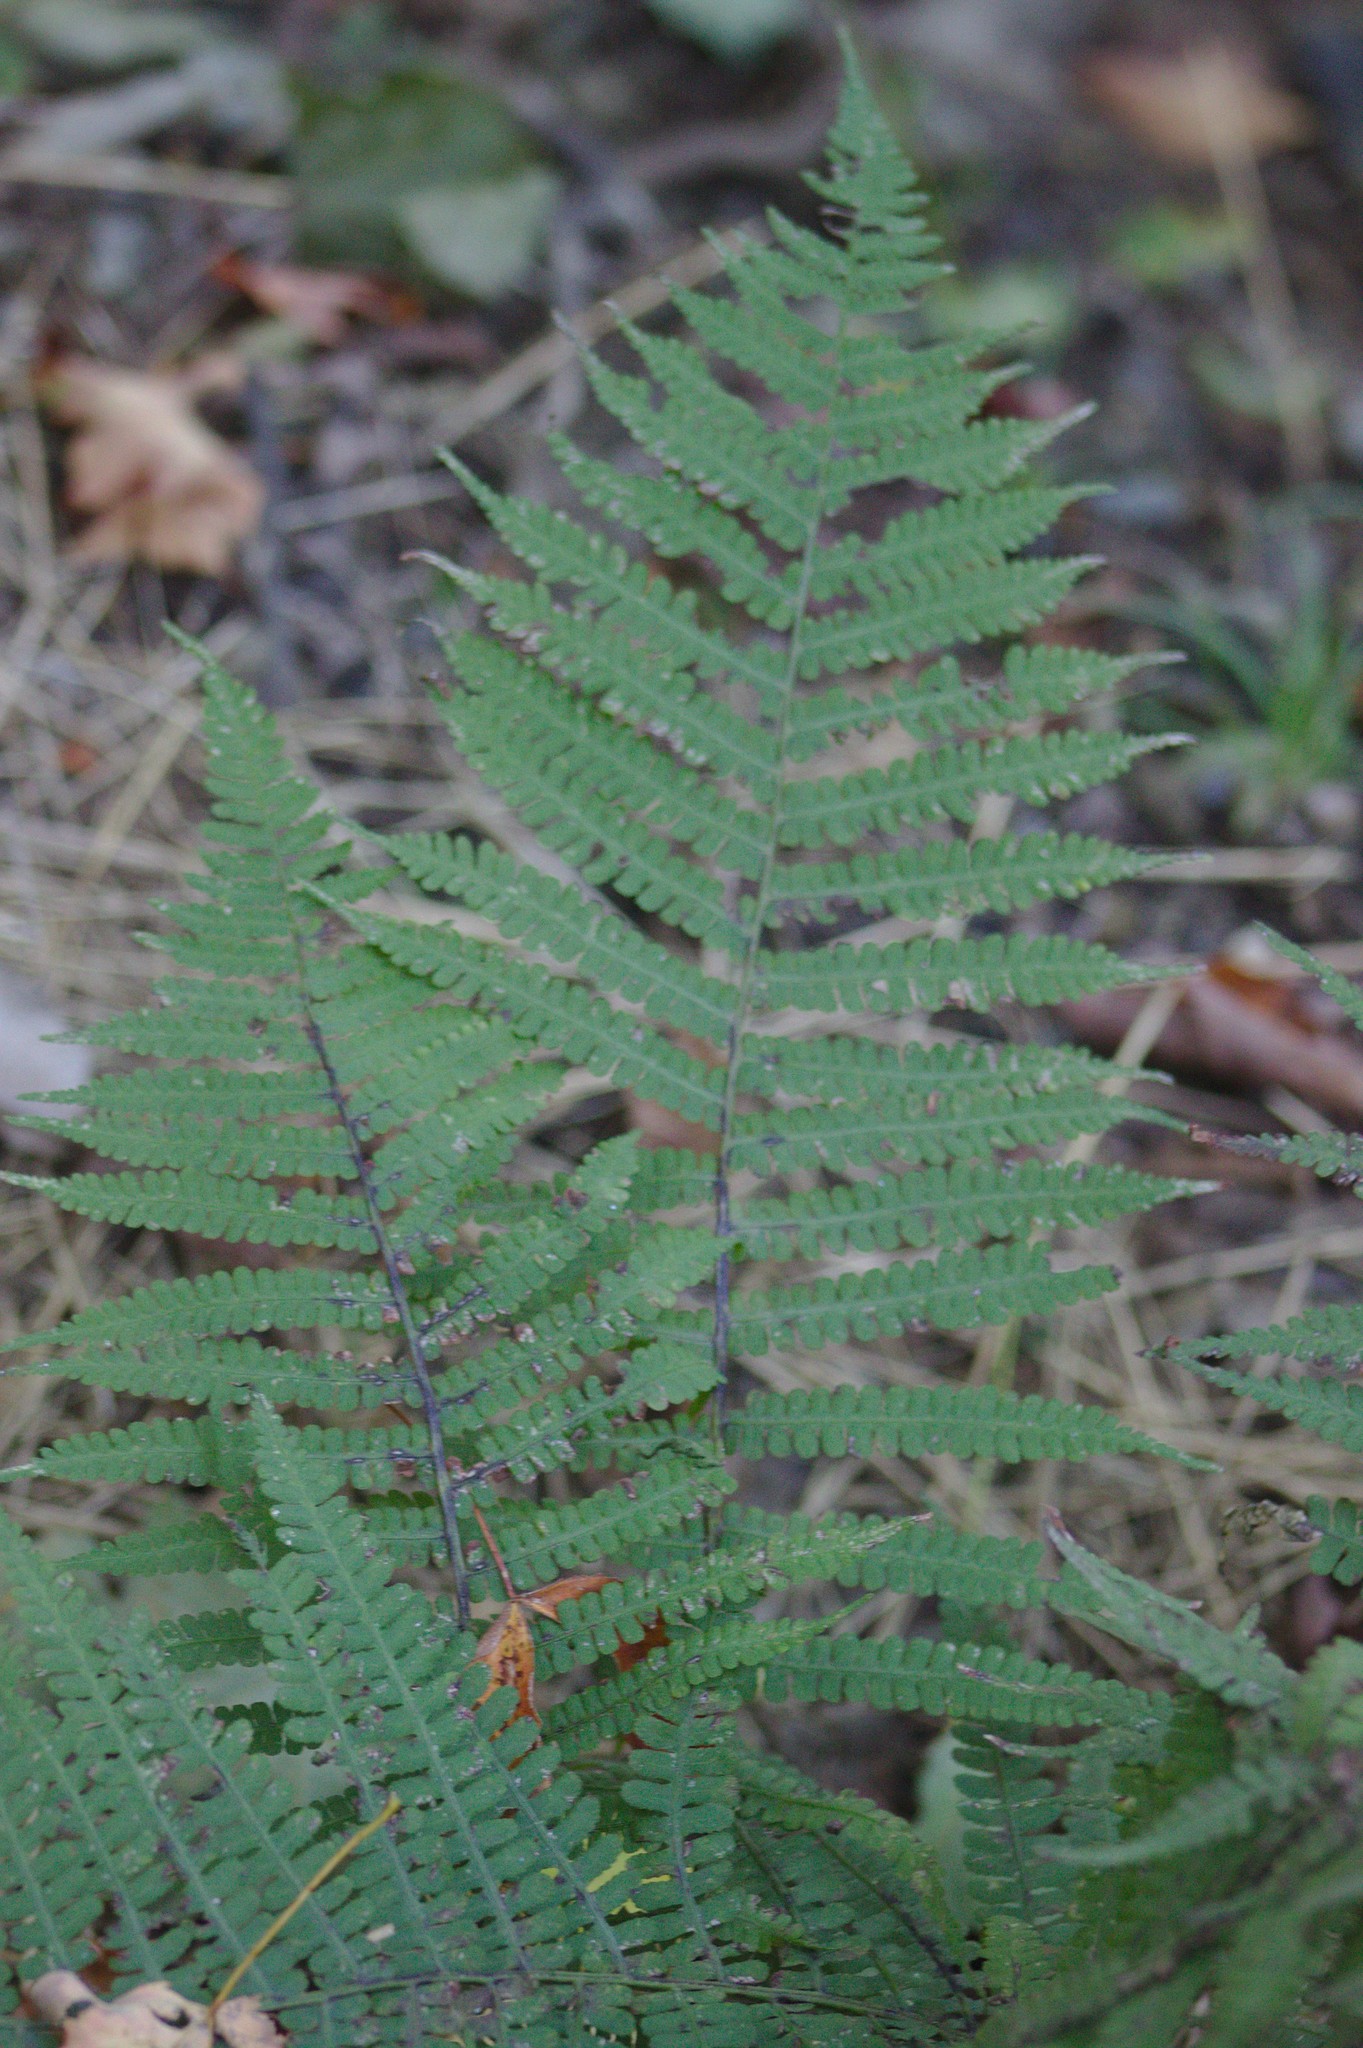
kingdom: Plantae
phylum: Tracheophyta
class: Polypodiopsida
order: Polypodiales
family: Athyriaceae
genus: Deparia
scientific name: Deparia acrostichoides
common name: Silver false spleenwort
